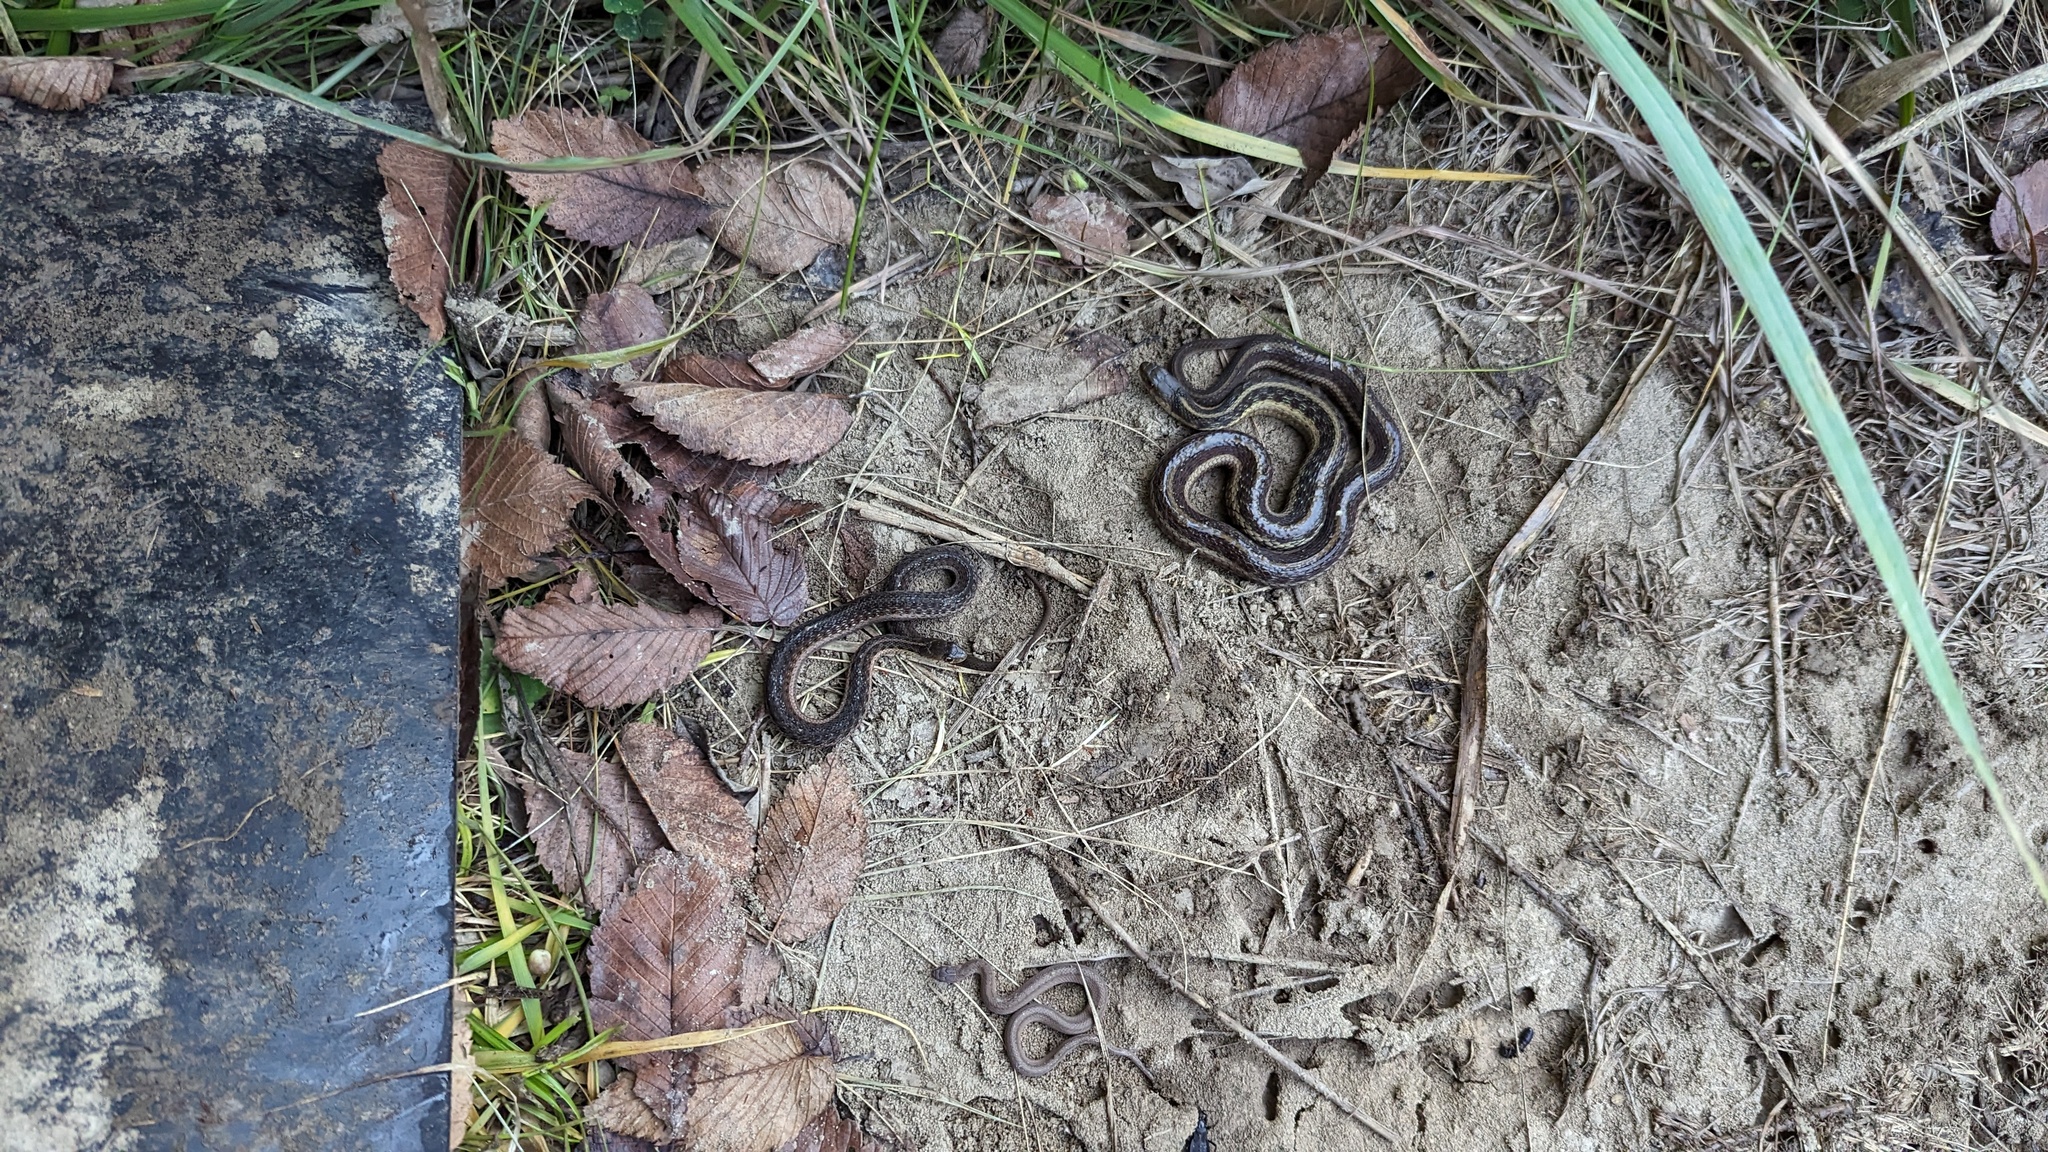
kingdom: Animalia
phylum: Chordata
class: Squamata
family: Colubridae
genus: Thamnophis
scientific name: Thamnophis sirtalis
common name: Common garter snake
